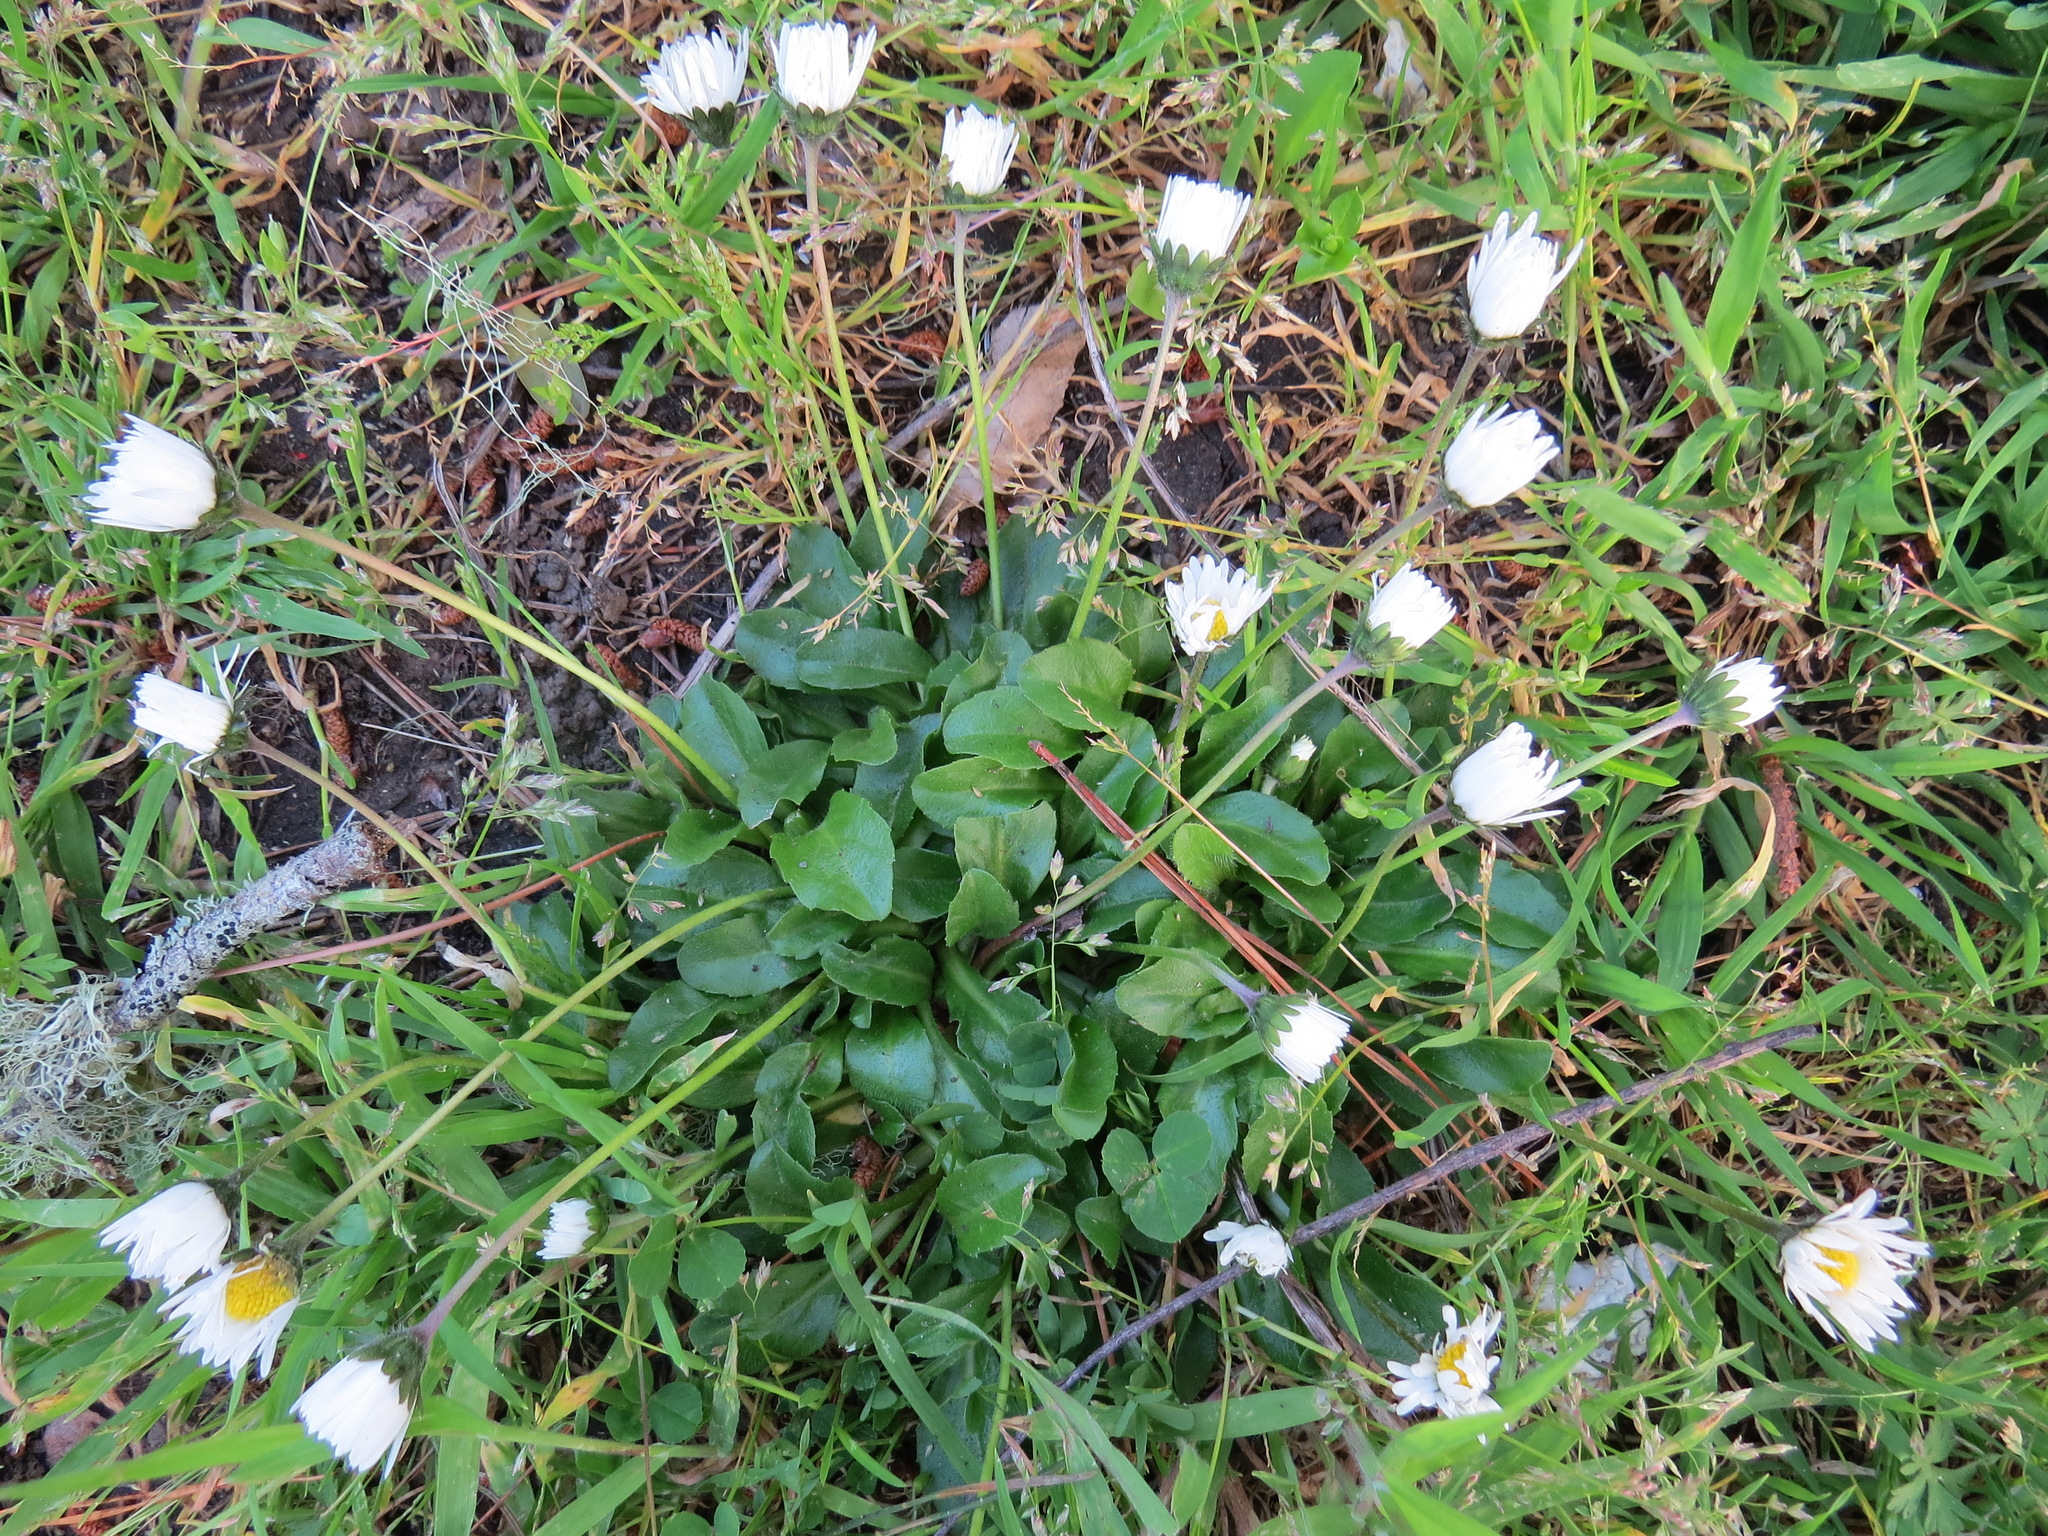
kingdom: Plantae
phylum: Tracheophyta
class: Magnoliopsida
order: Asterales
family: Asteraceae
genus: Bellis
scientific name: Bellis perennis
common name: Lawndaisy
